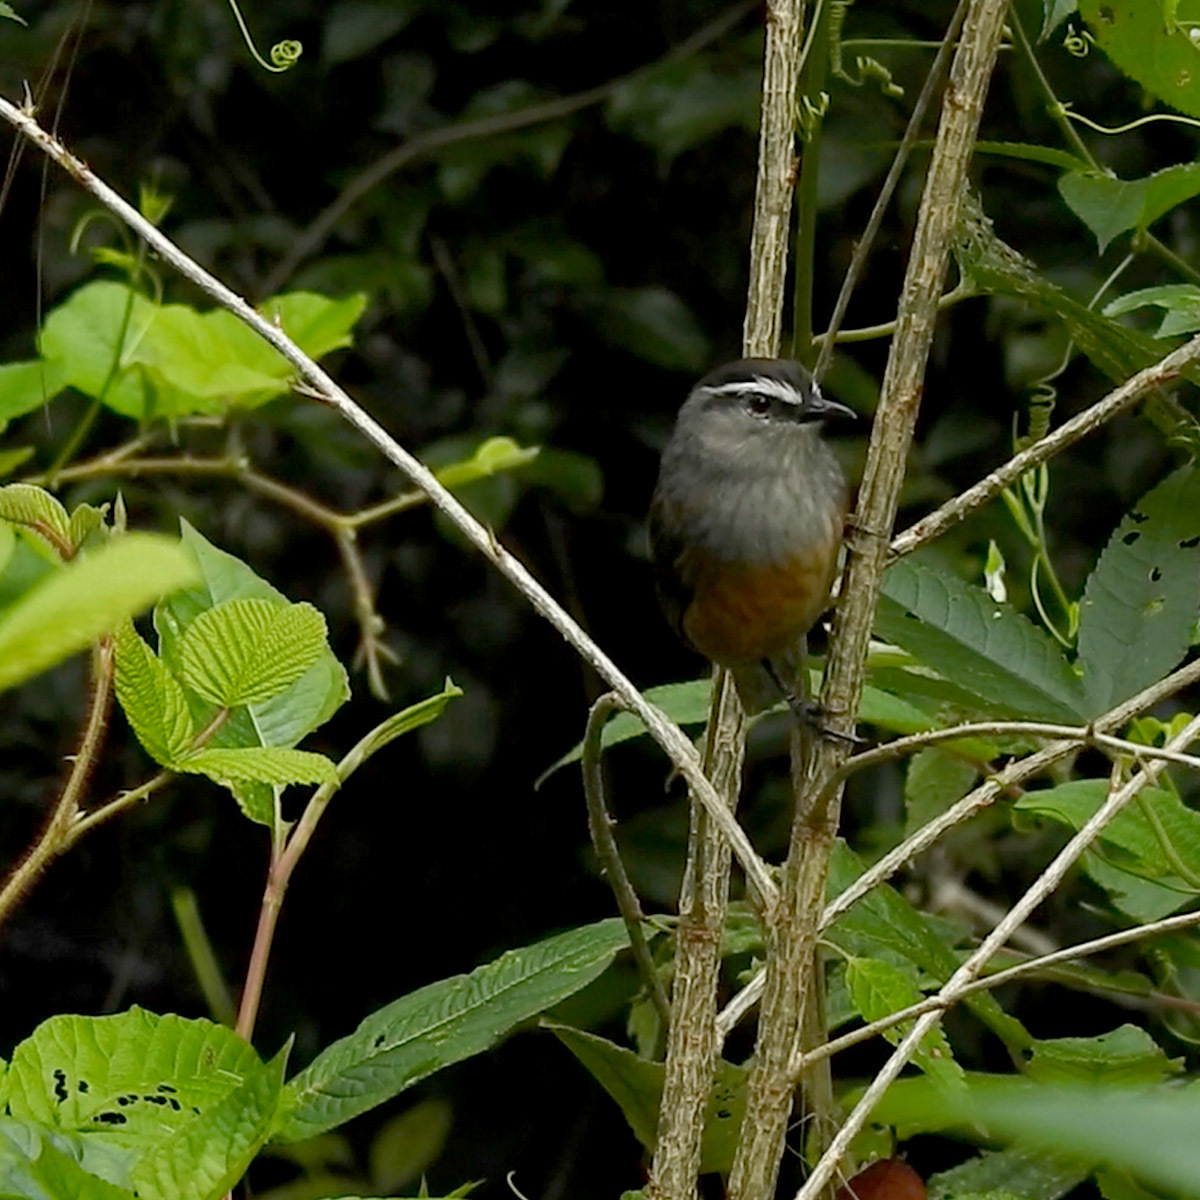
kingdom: Animalia
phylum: Chordata
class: Aves
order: Passeriformes
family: Leiothrichidae
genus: Trochalopteron
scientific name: Trochalopteron fairbanki
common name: Kerala laughingthrush
